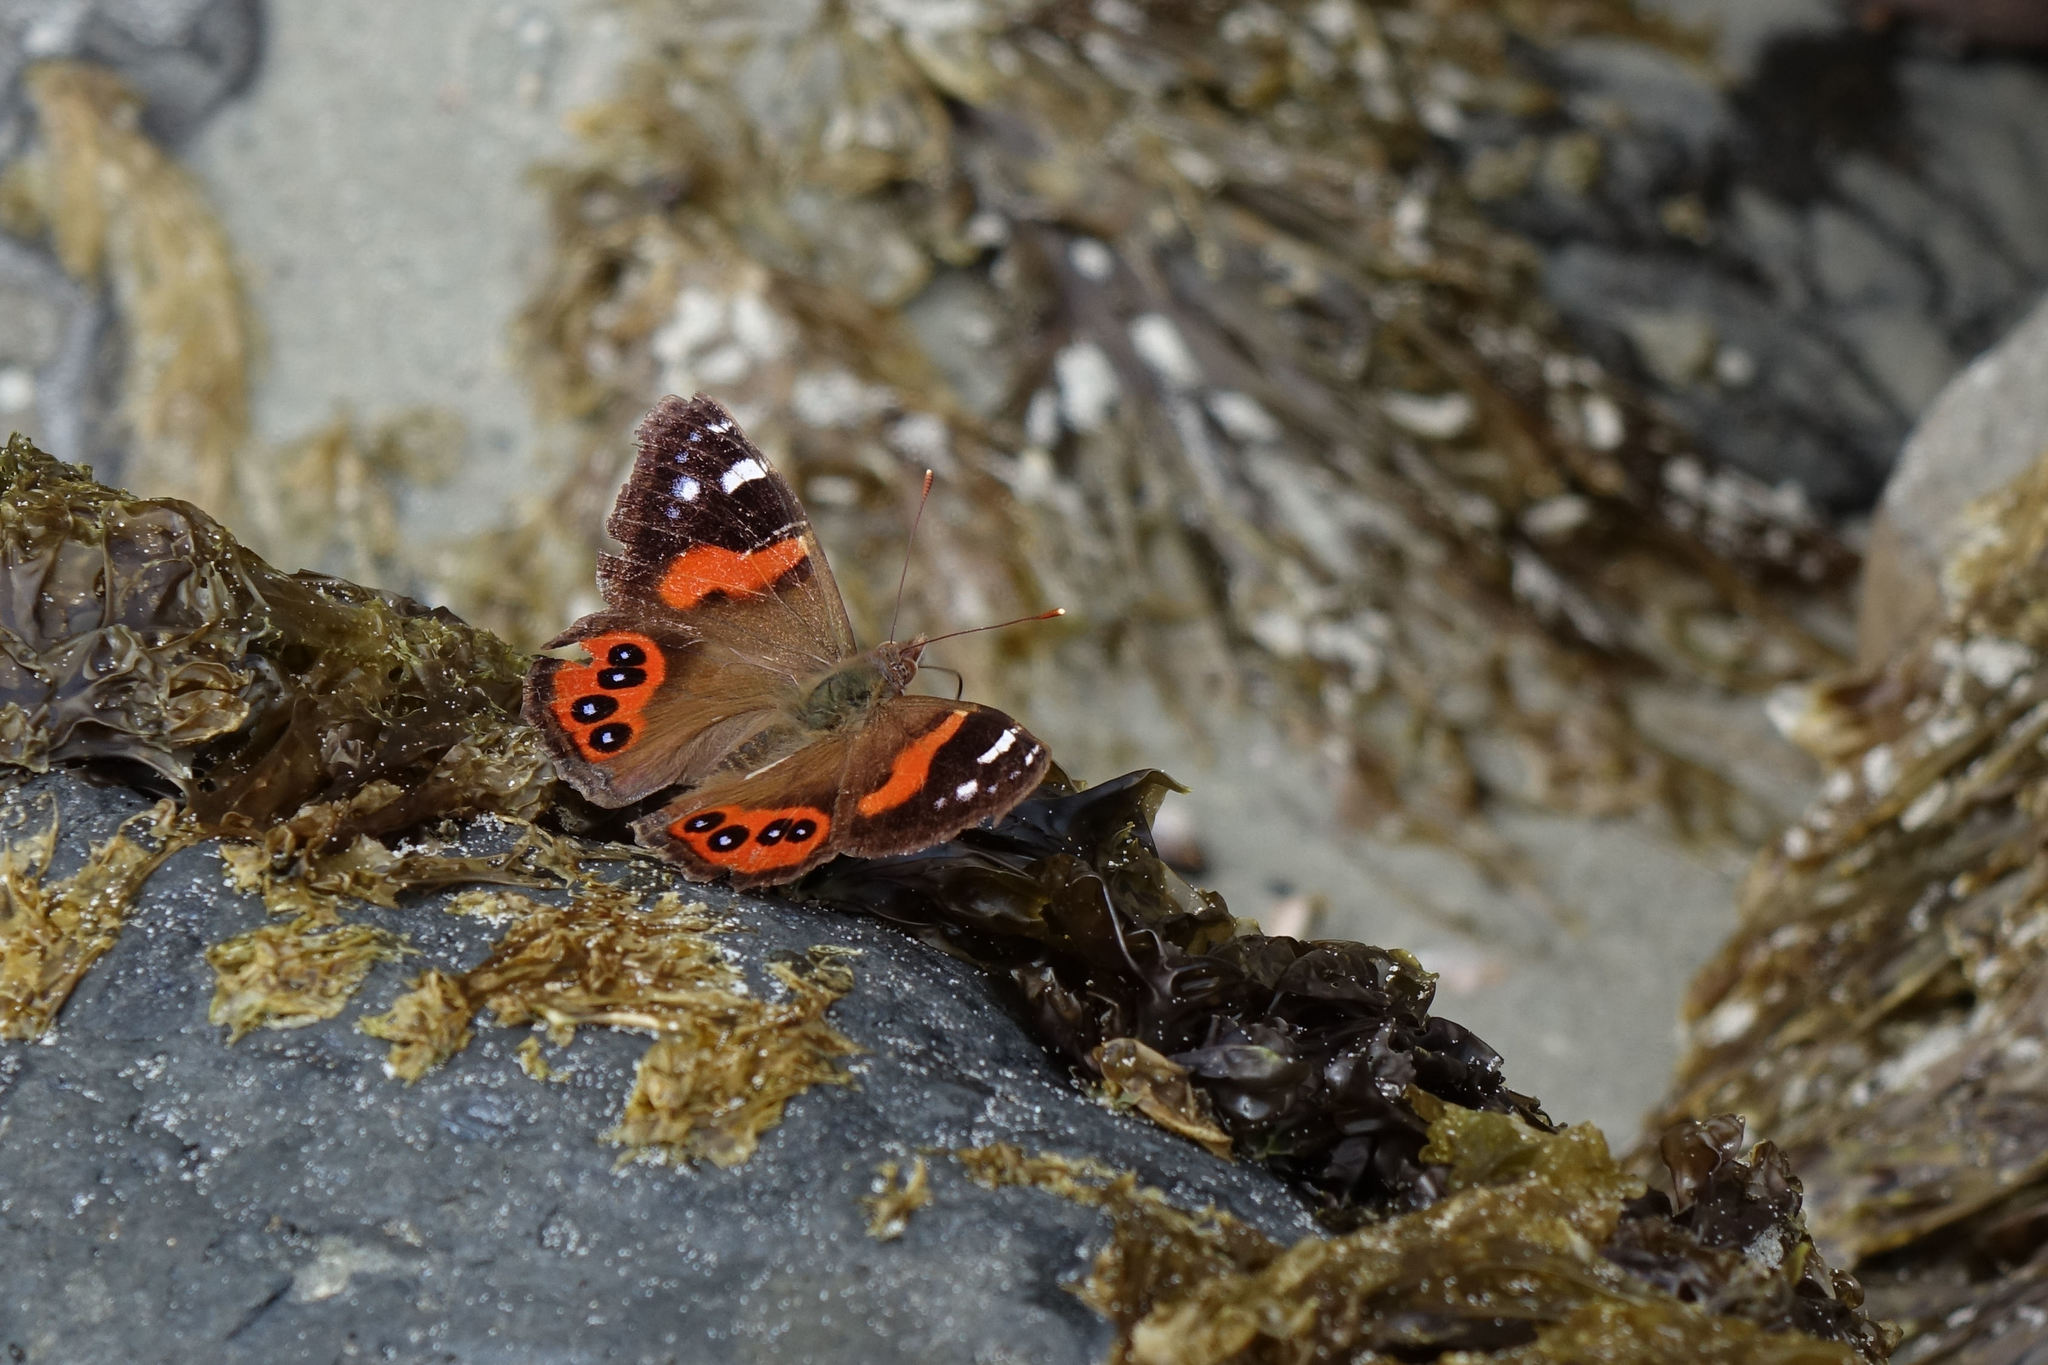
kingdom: Animalia
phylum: Arthropoda
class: Insecta
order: Lepidoptera
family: Nymphalidae
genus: Vanessa
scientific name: Vanessa gonerilla
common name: New zealand red admiral
